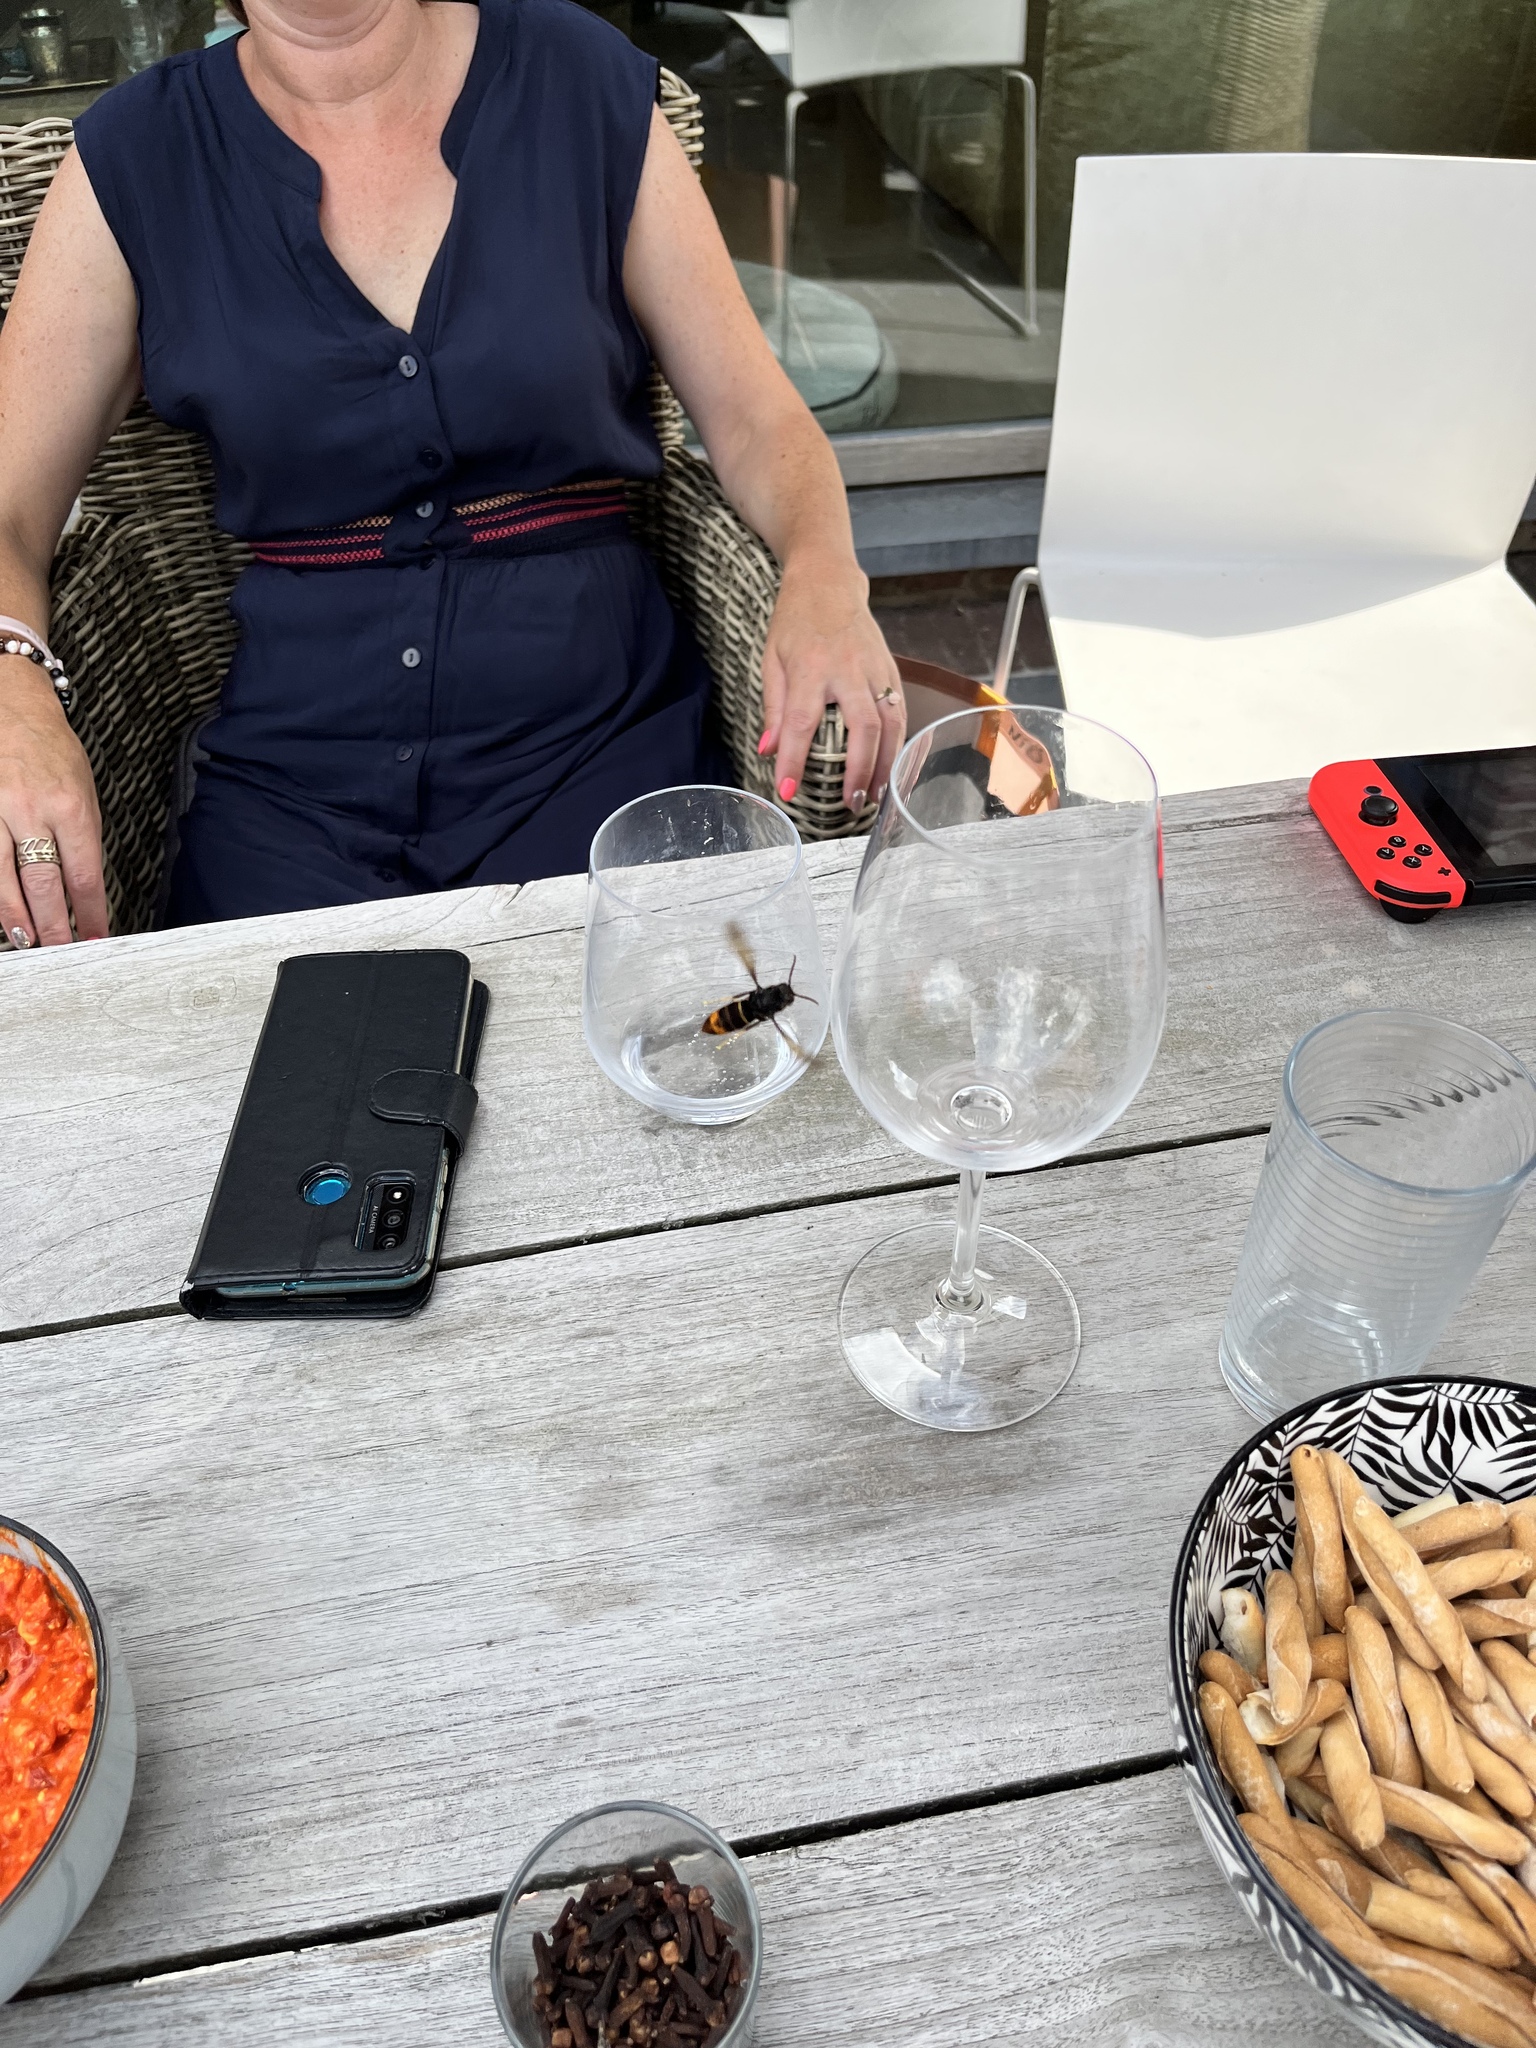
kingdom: Animalia
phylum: Arthropoda
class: Insecta
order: Hymenoptera
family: Vespidae
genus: Vespa
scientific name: Vespa velutina
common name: Asian hornet
